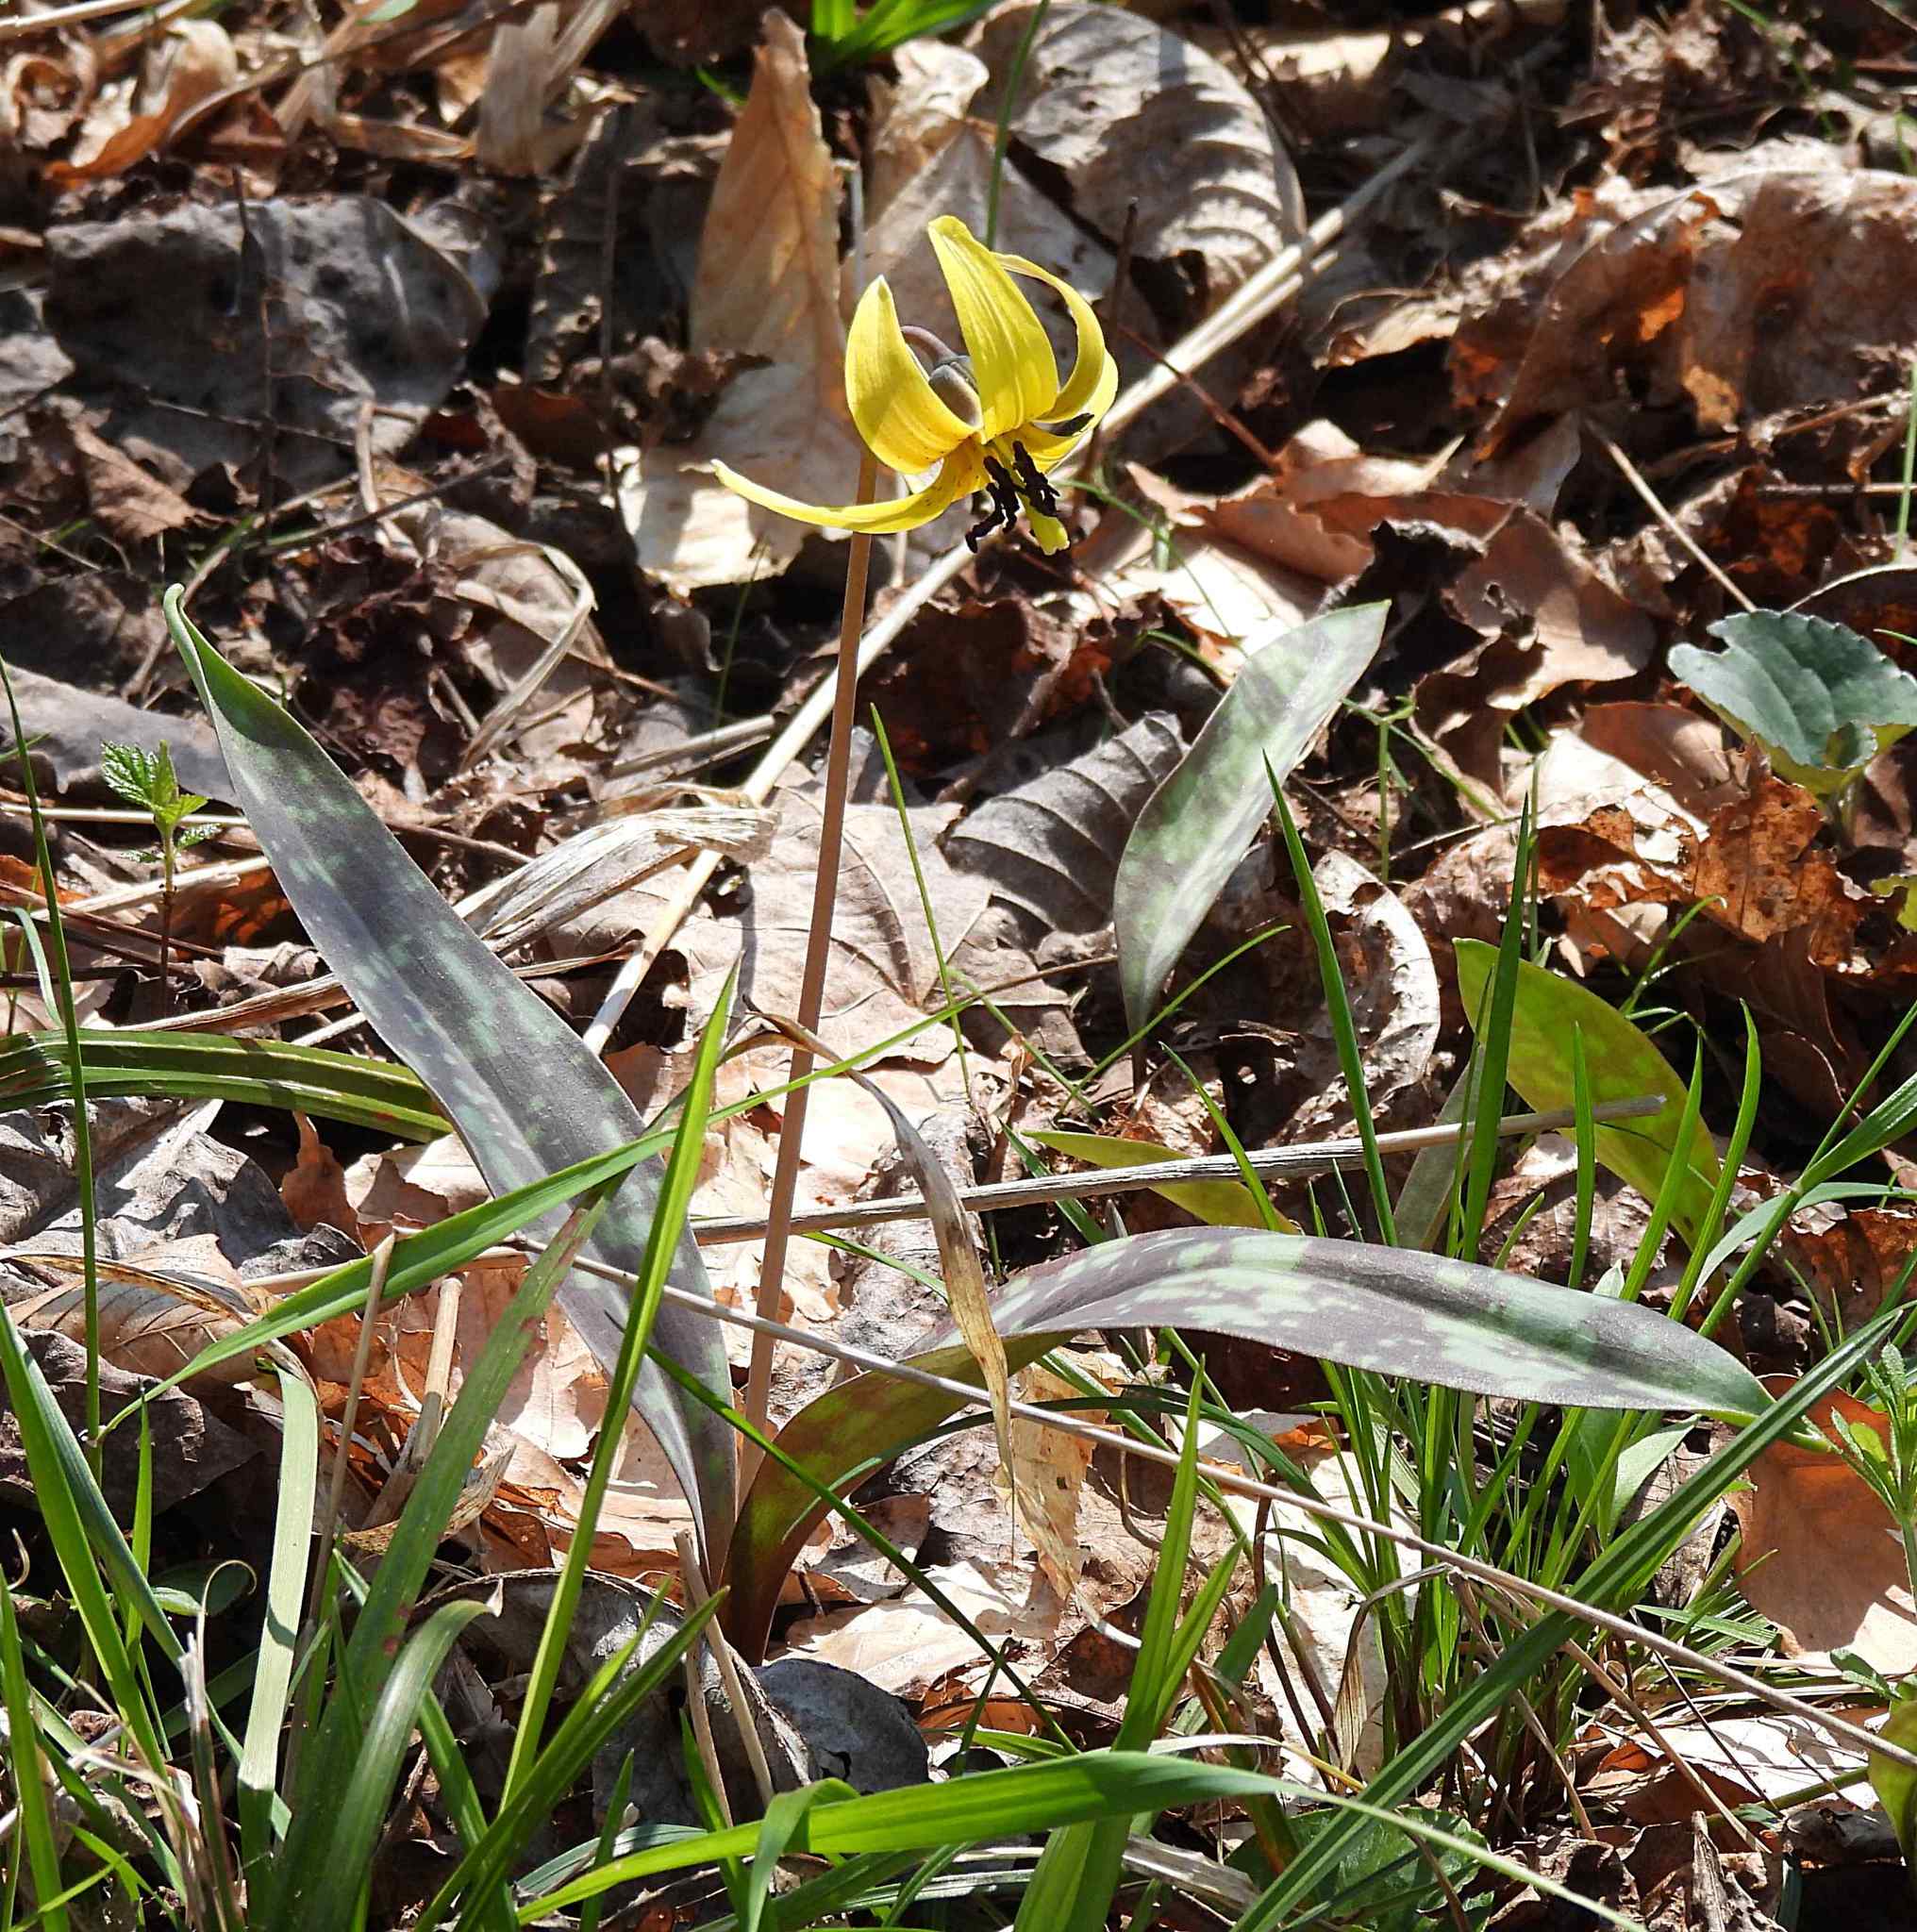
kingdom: Plantae
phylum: Tracheophyta
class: Liliopsida
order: Liliales
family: Liliaceae
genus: Erythronium
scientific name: Erythronium americanum
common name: Yellow adder's-tongue
